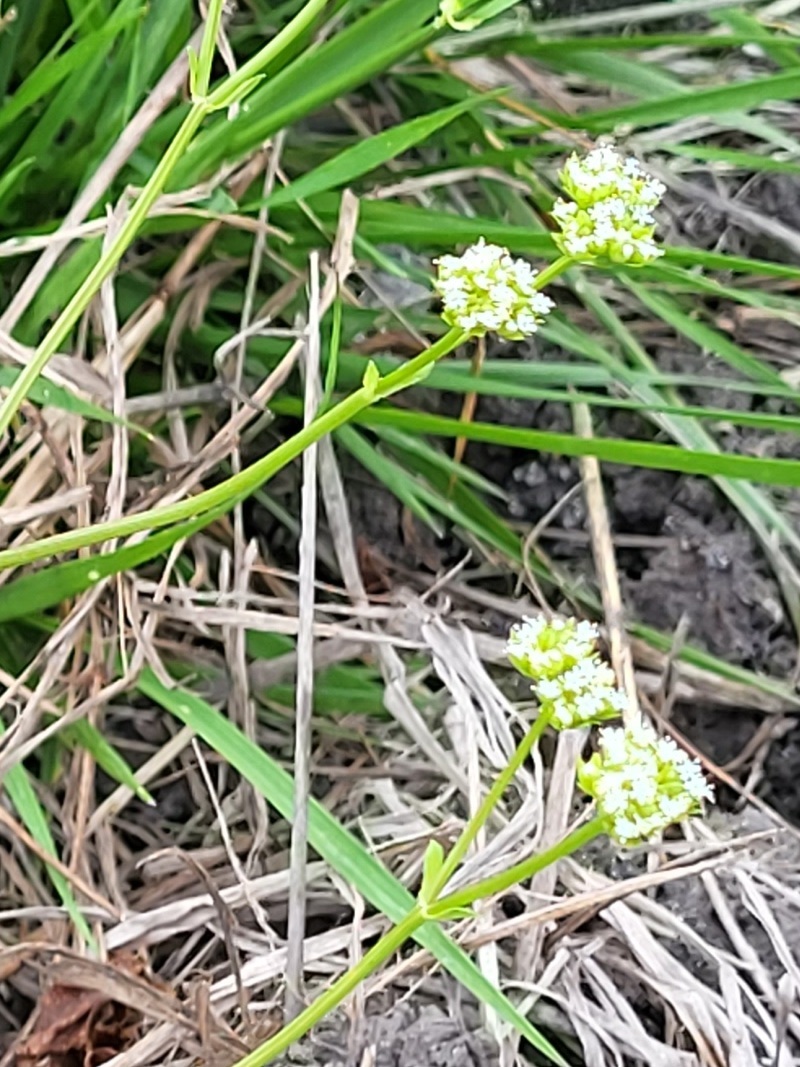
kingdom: Plantae
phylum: Tracheophyta
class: Magnoliopsida
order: Dipsacales
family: Caprifoliaceae
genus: Valerianella
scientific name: Valerianella radiata
